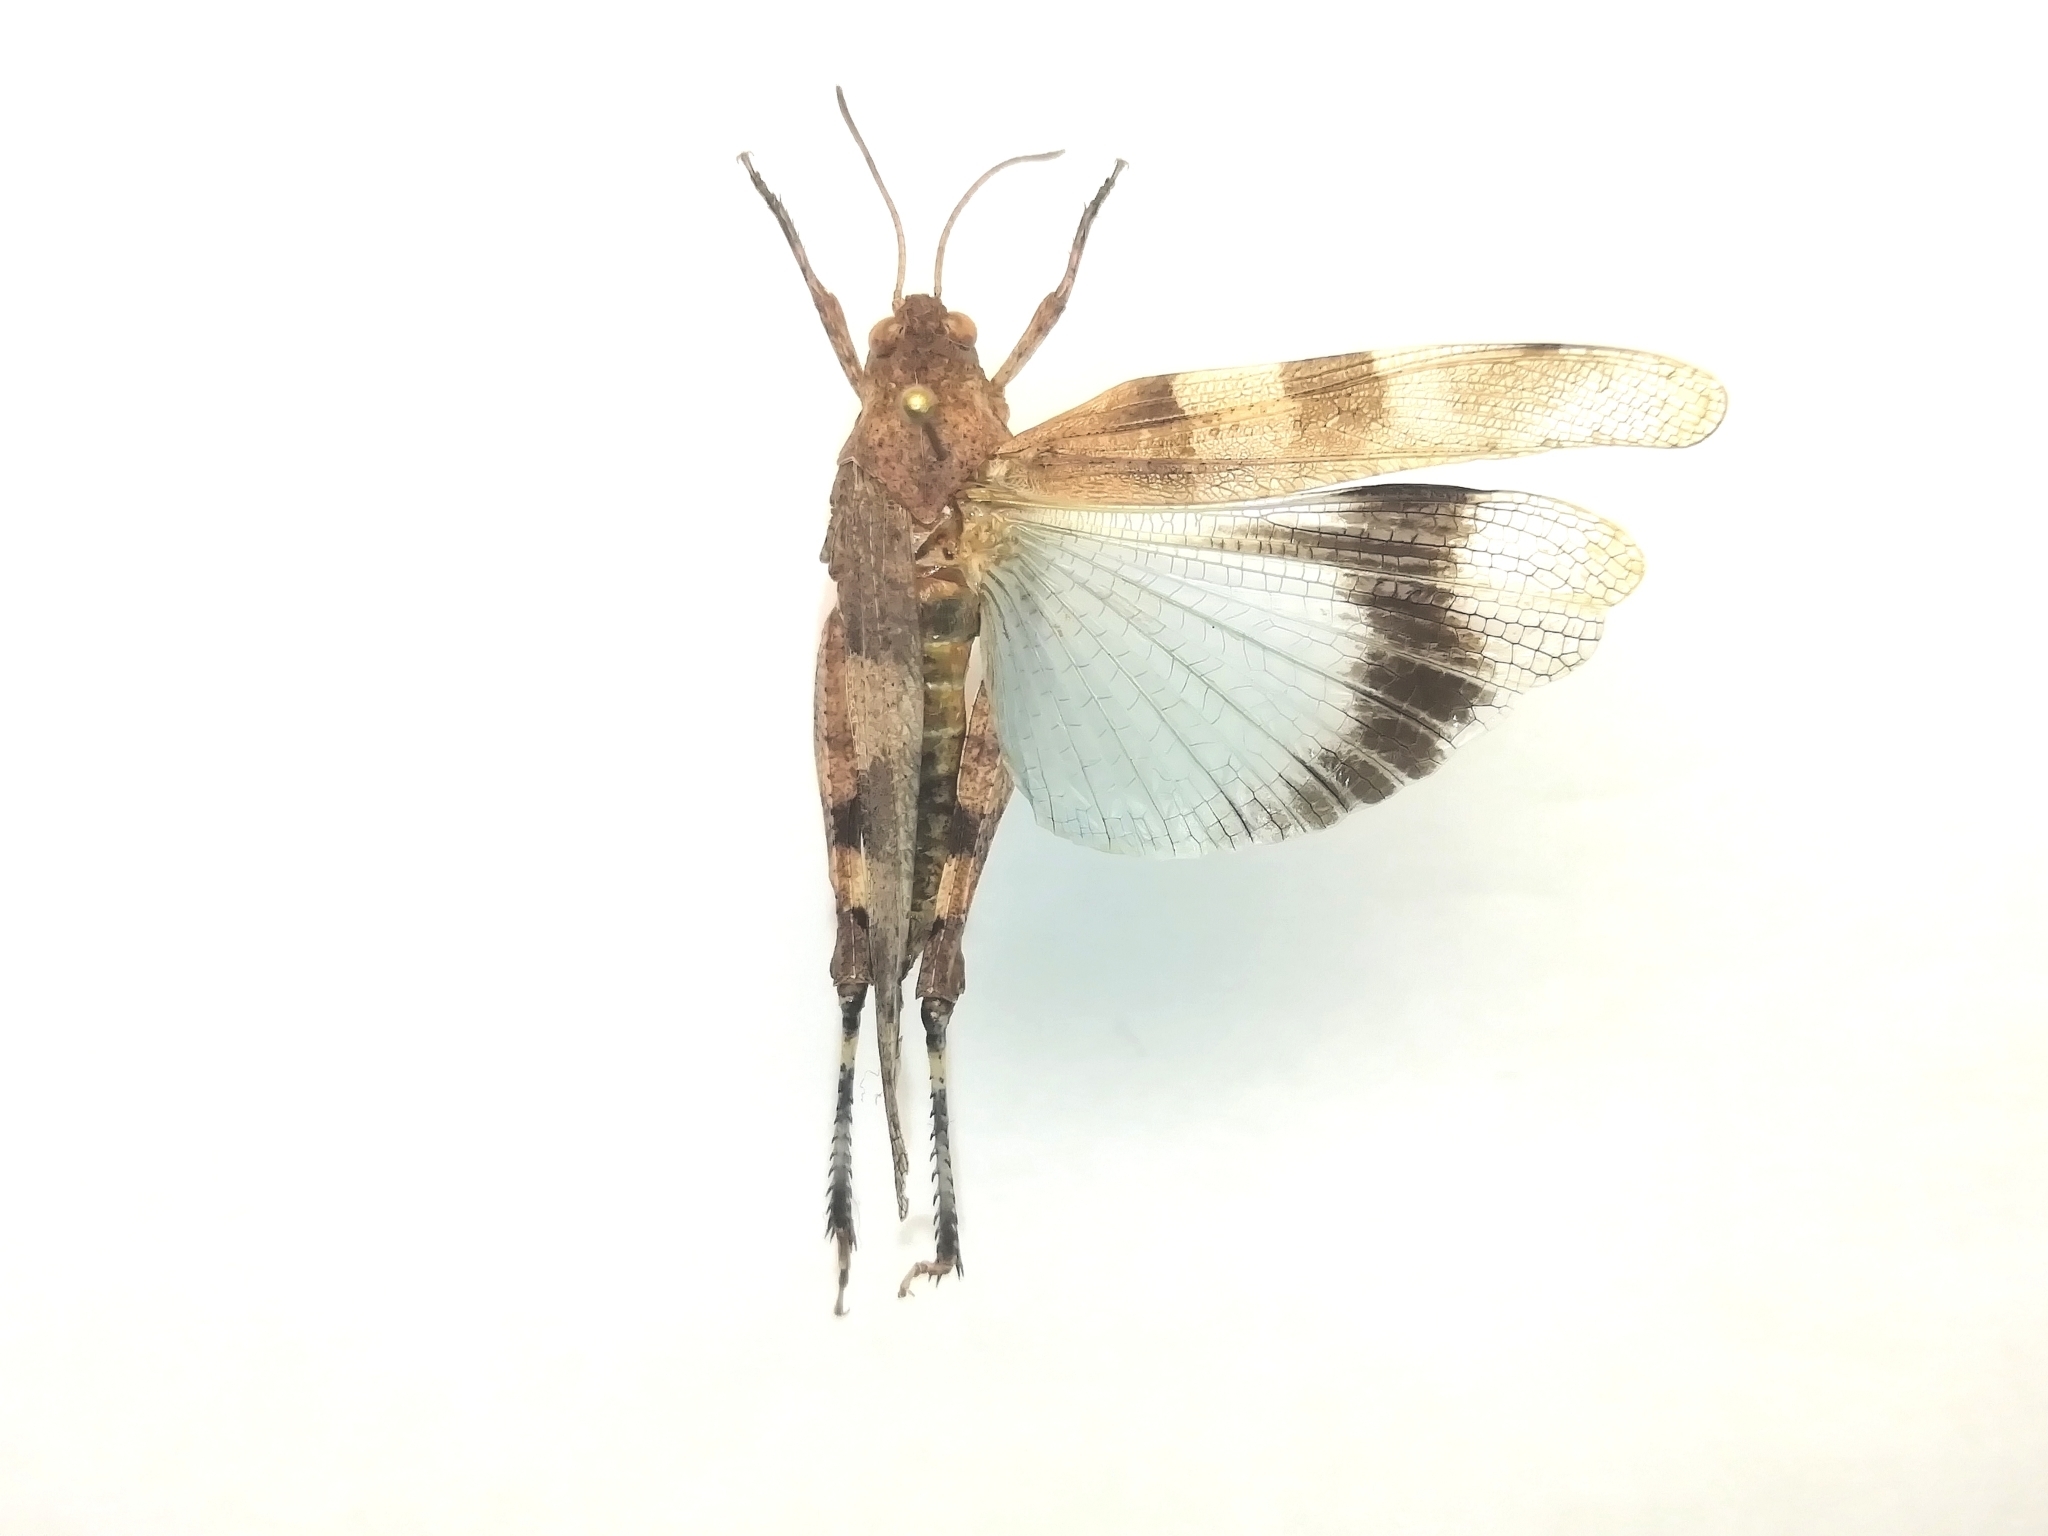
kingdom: Animalia
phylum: Arthropoda
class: Insecta
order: Orthoptera
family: Acrididae
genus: Oedipoda
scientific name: Oedipoda caerulescens
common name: Blue-winged grasshopper
